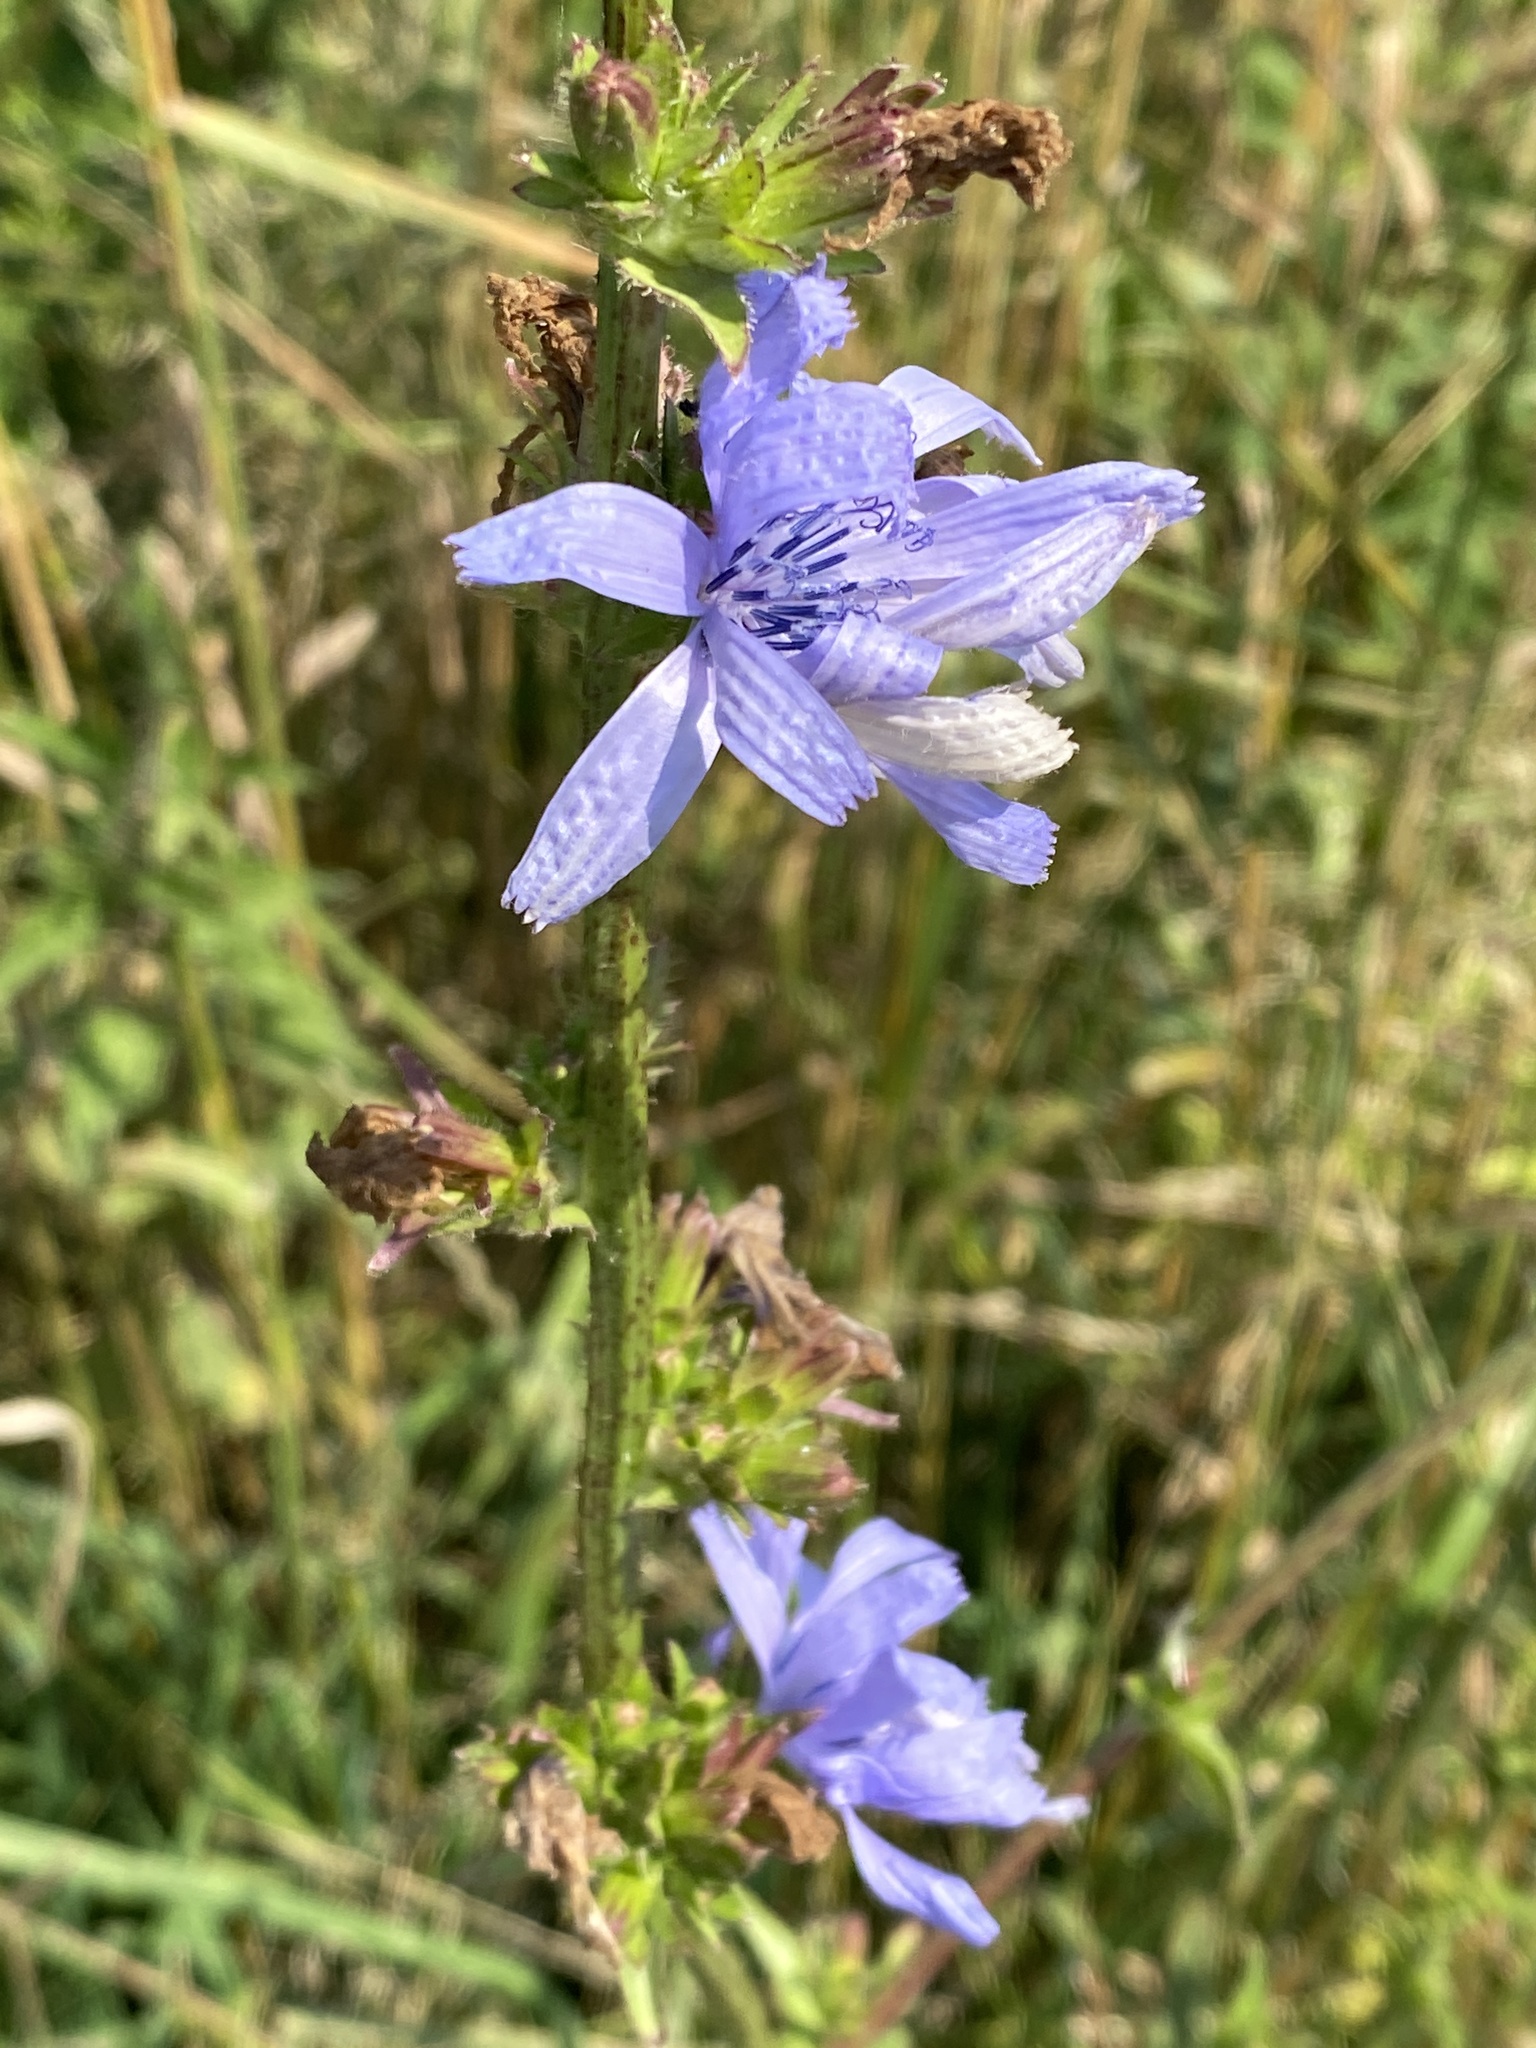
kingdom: Plantae
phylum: Tracheophyta
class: Magnoliopsida
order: Asterales
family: Asteraceae
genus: Cichorium
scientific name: Cichorium intybus
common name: Chicory
